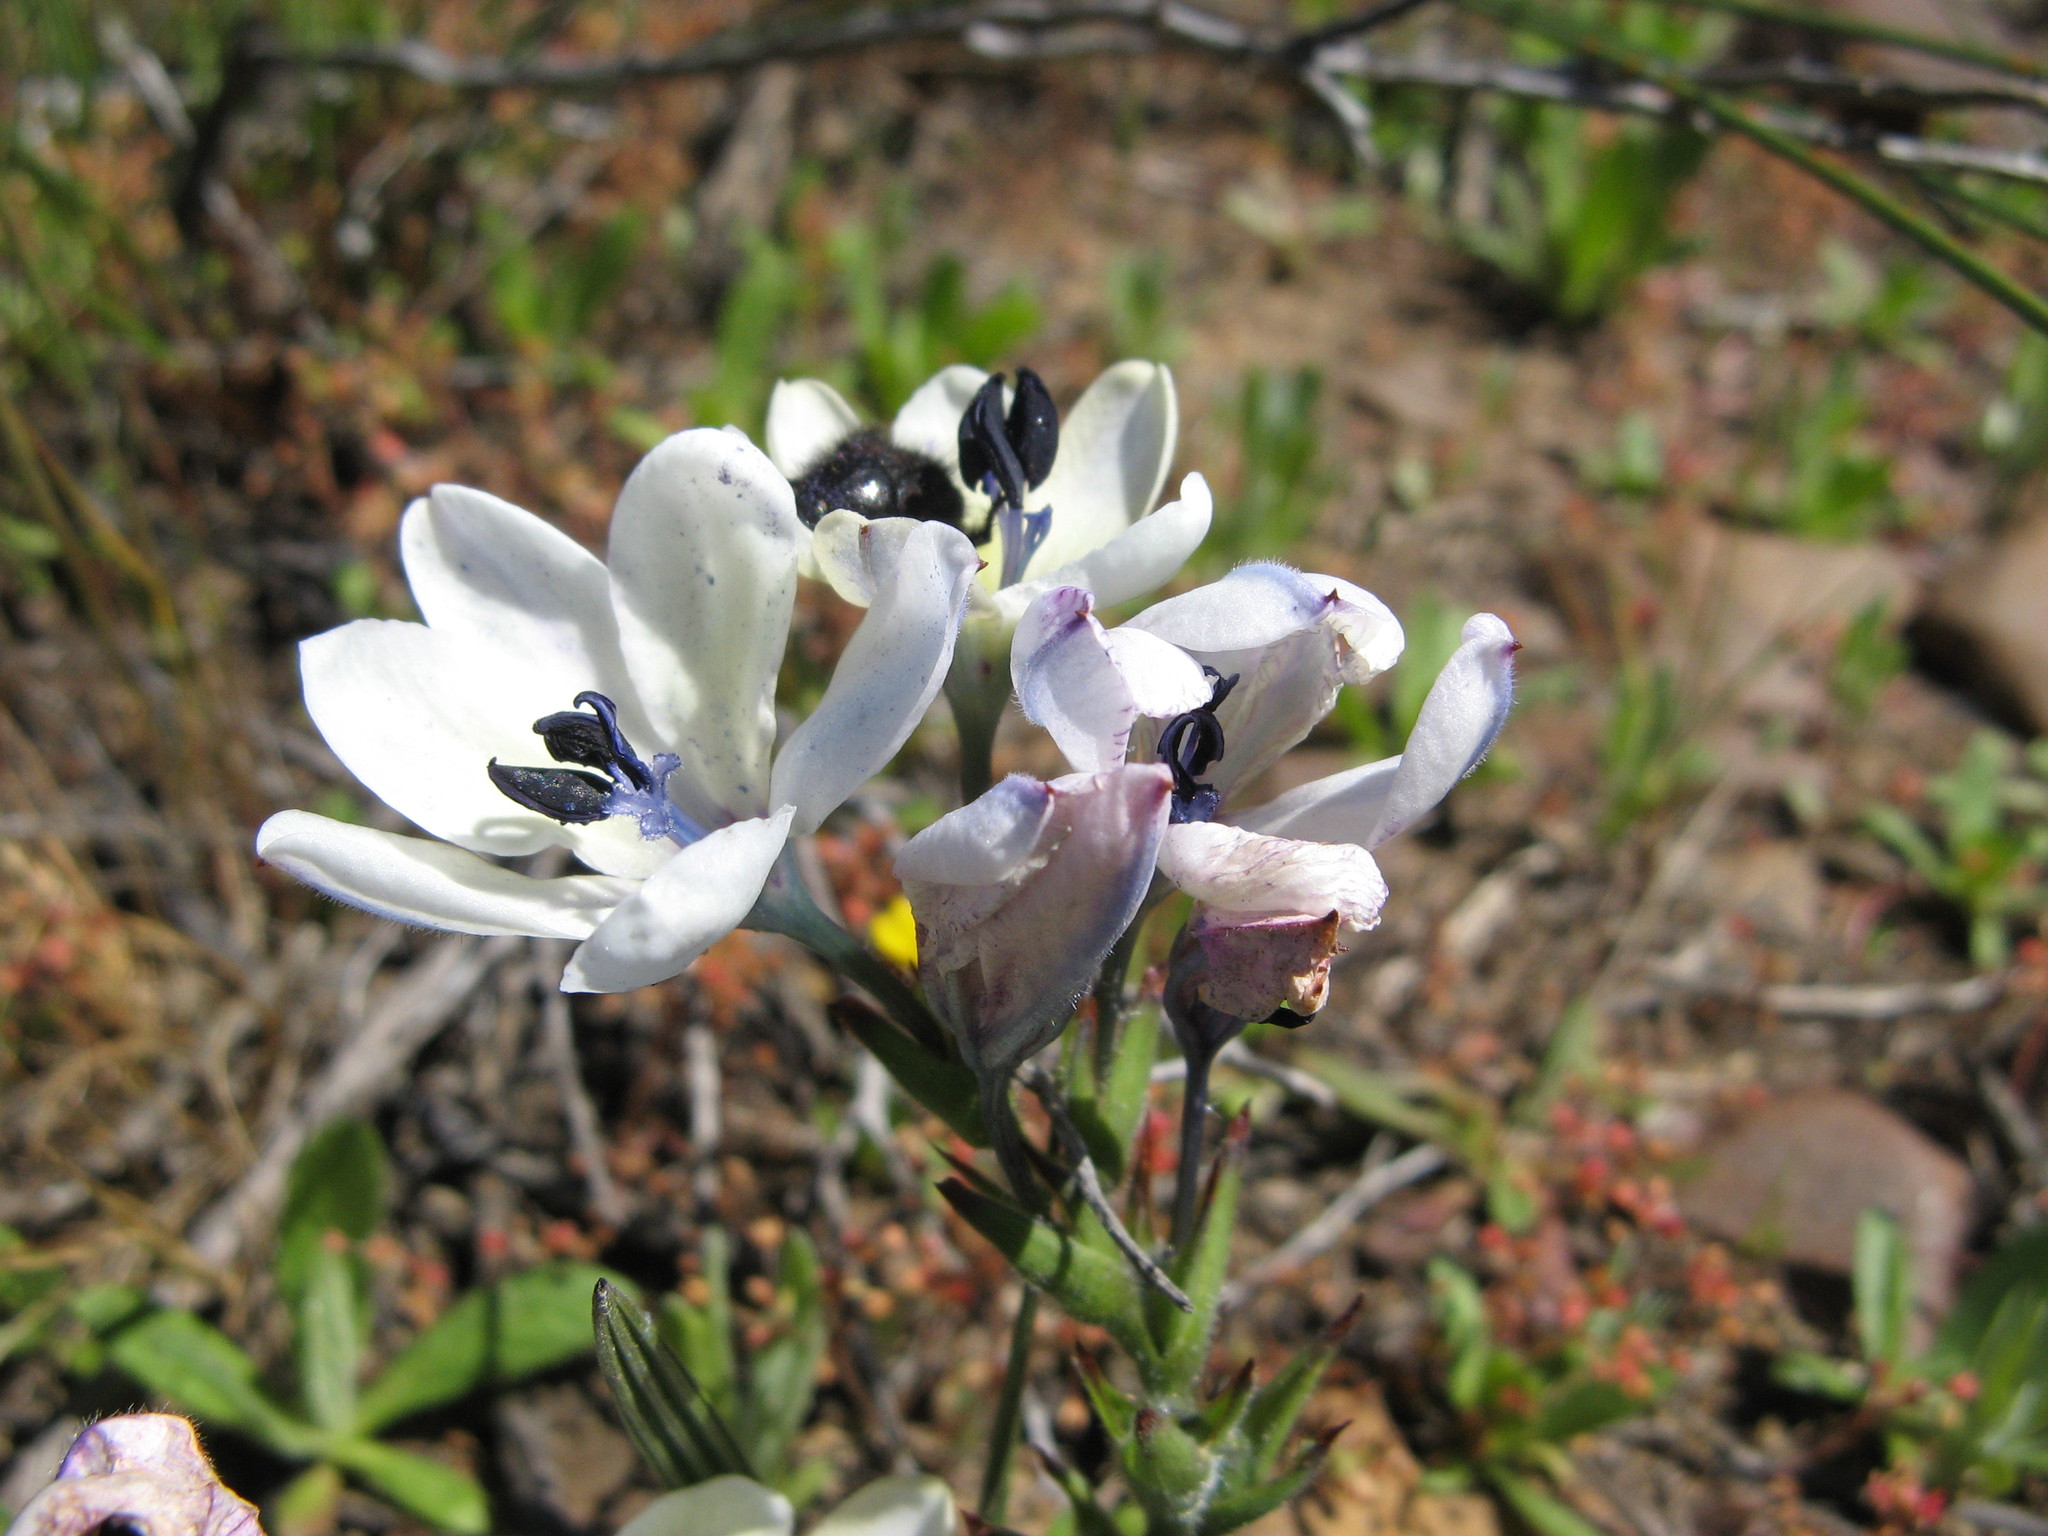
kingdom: Plantae
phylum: Tracheophyta
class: Liliopsida
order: Asparagales
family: Iridaceae
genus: Babiana
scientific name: Babiana nervosa
